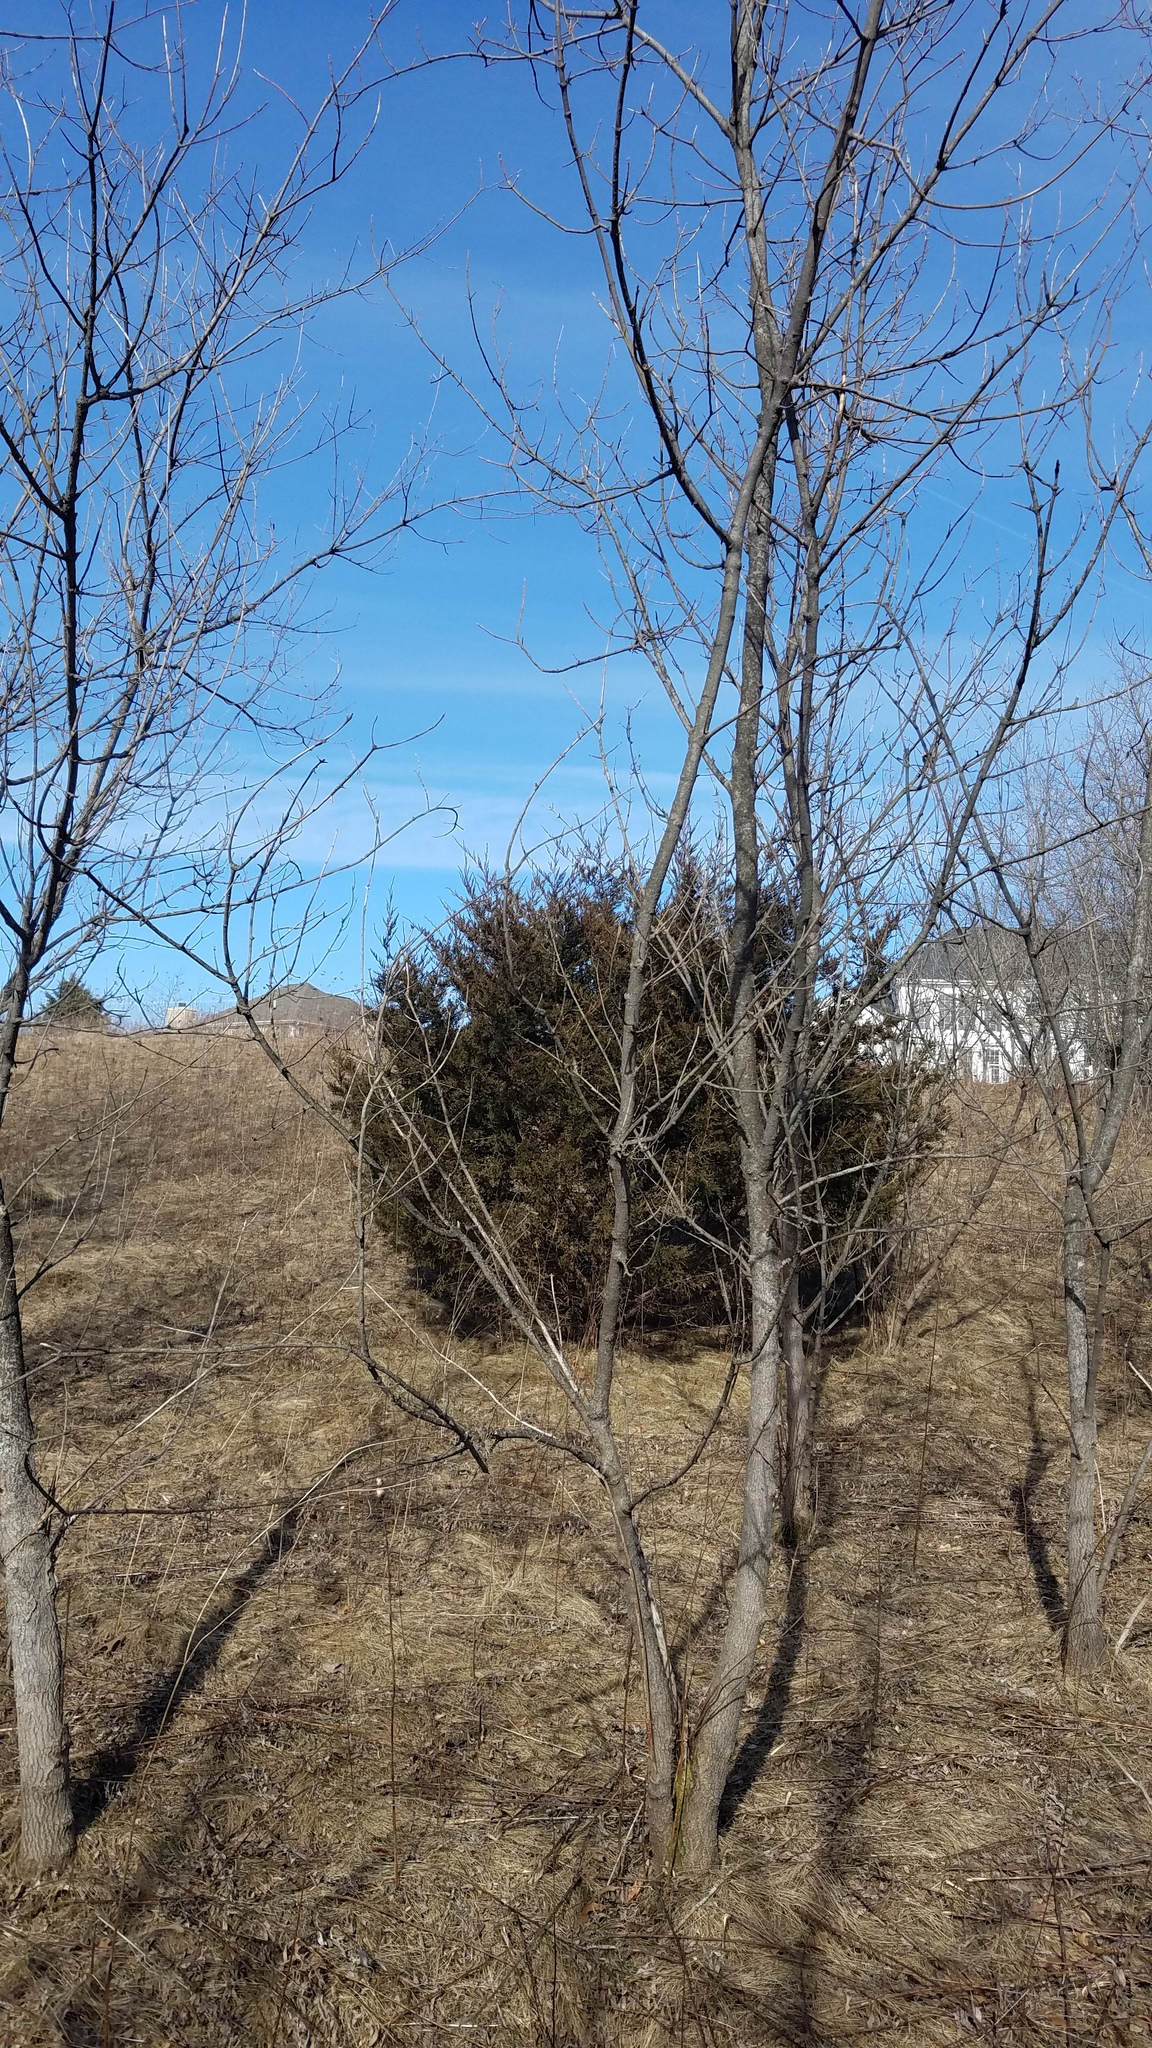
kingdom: Plantae
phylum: Tracheophyta
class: Pinopsida
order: Pinales
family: Cupressaceae
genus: Juniperus
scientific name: Juniperus virginiana
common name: Red juniper
